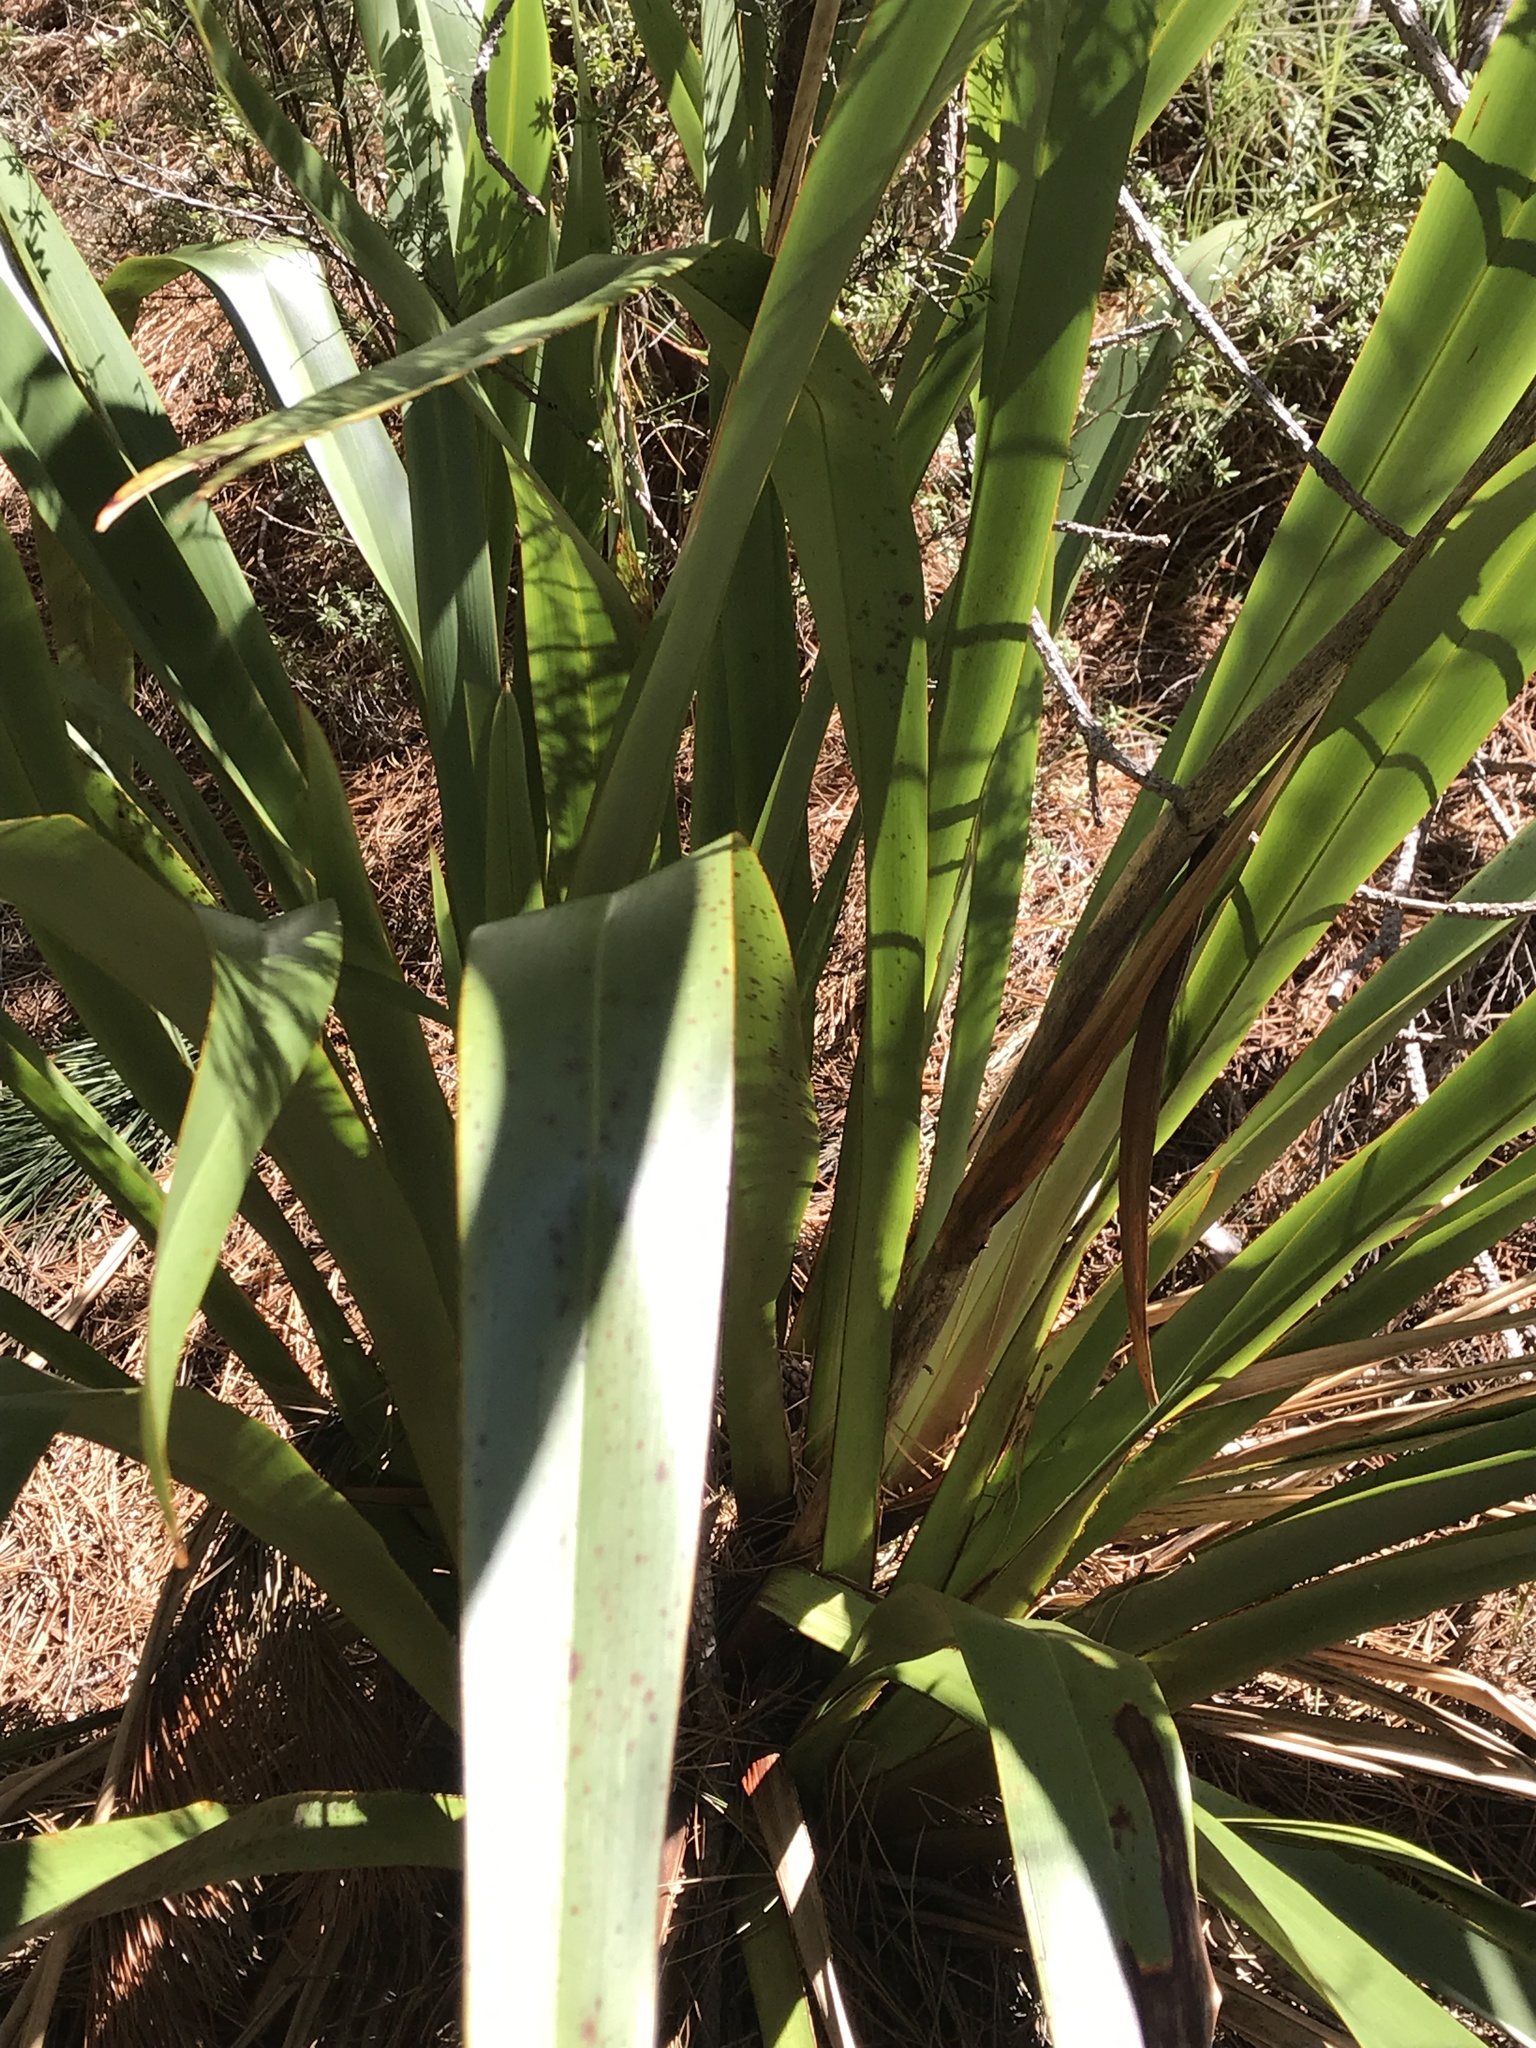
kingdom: Plantae
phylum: Tracheophyta
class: Liliopsida
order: Asparagales
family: Asphodelaceae
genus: Phormium
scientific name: Phormium tenax
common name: New zealand flax
